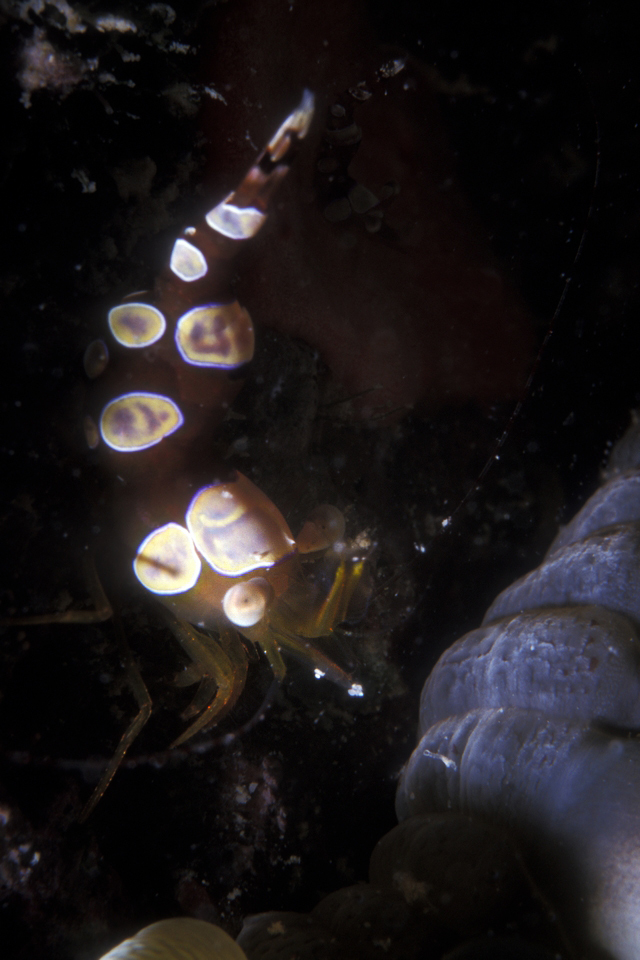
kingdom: Animalia
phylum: Arthropoda
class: Malacostraca
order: Decapoda
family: Thoridae
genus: Thor
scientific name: Thor dicaprio
